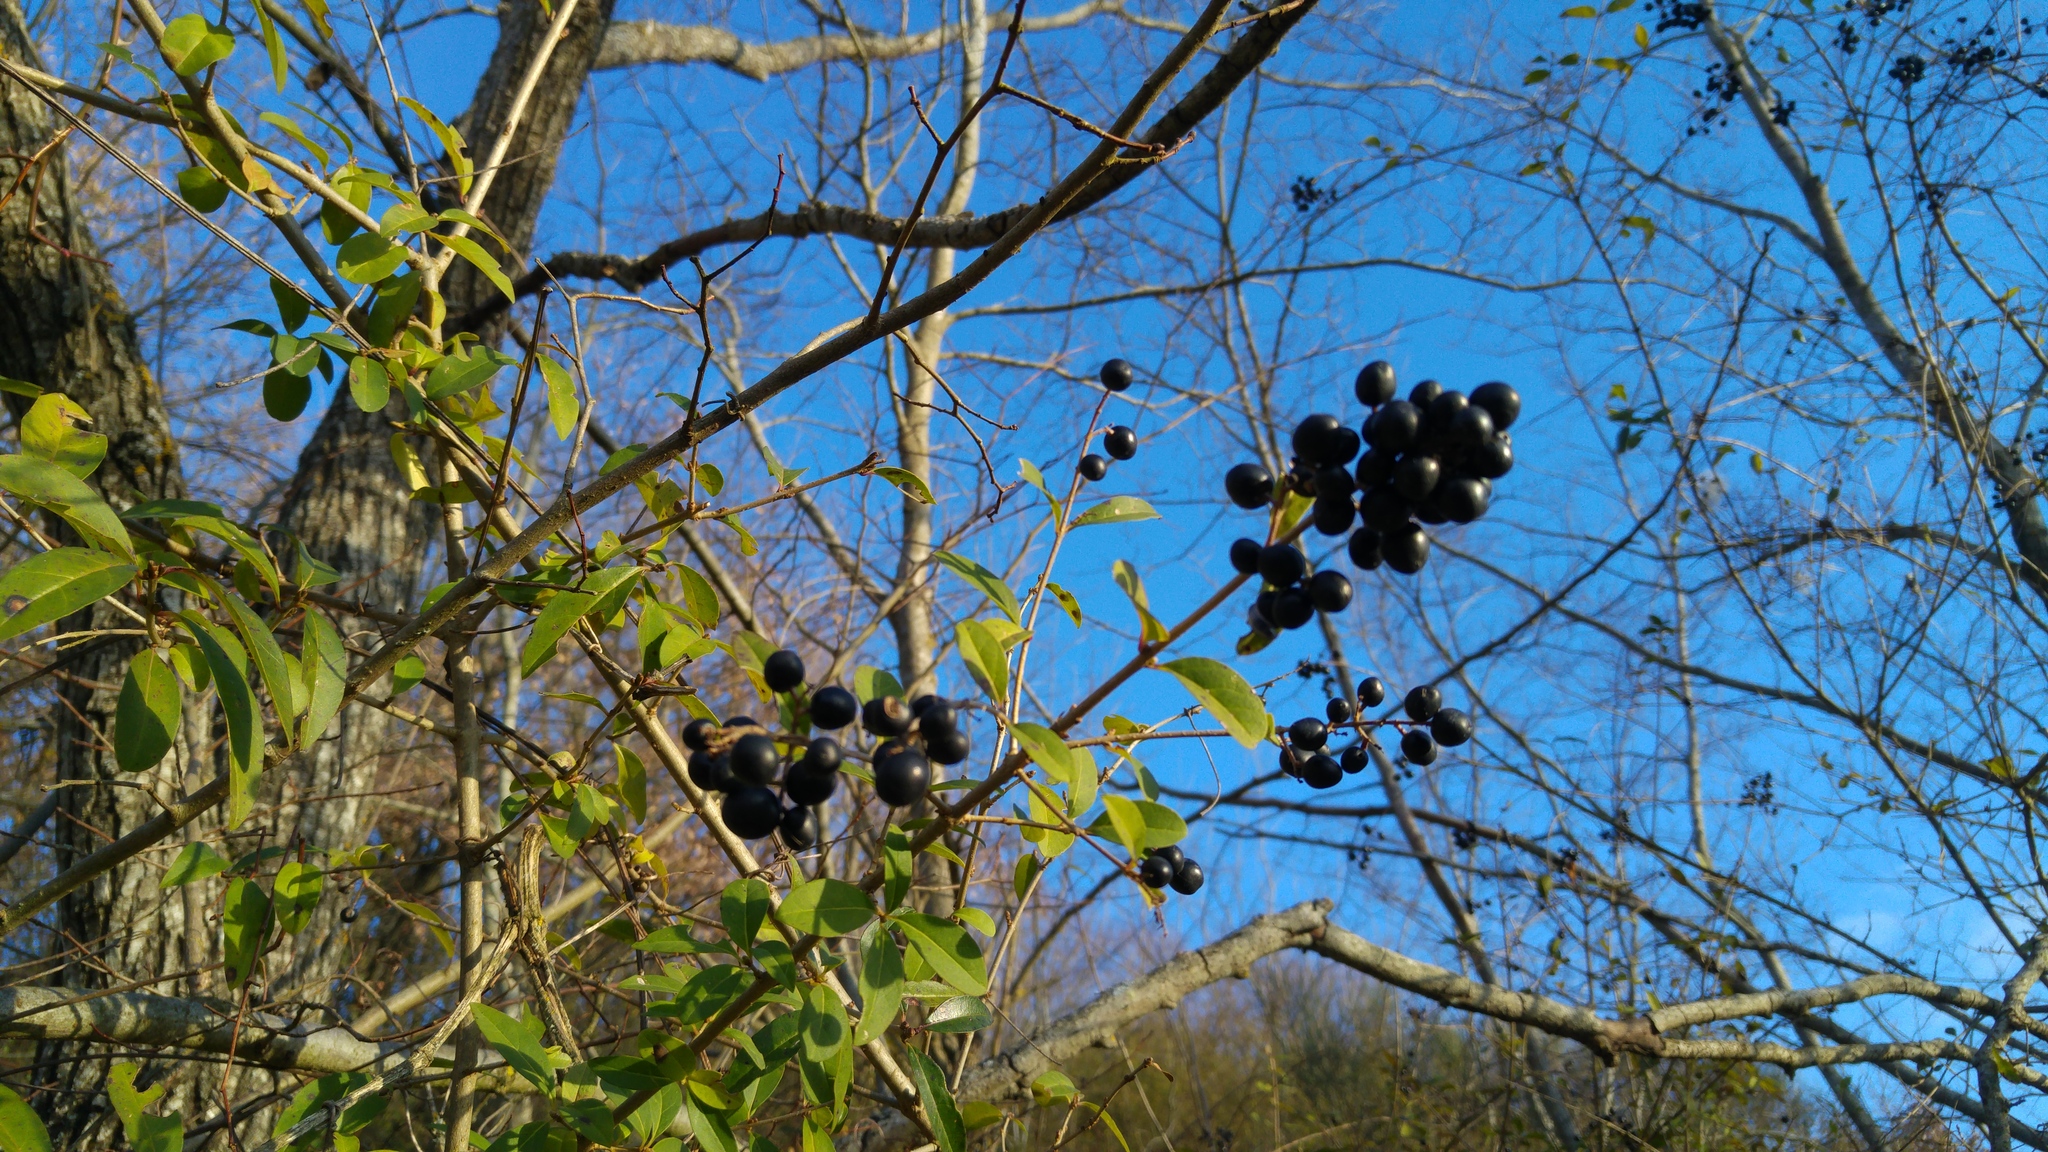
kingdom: Plantae
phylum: Tracheophyta
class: Magnoliopsida
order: Lamiales
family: Oleaceae
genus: Ligustrum
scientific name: Ligustrum vulgare
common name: Wild privet
